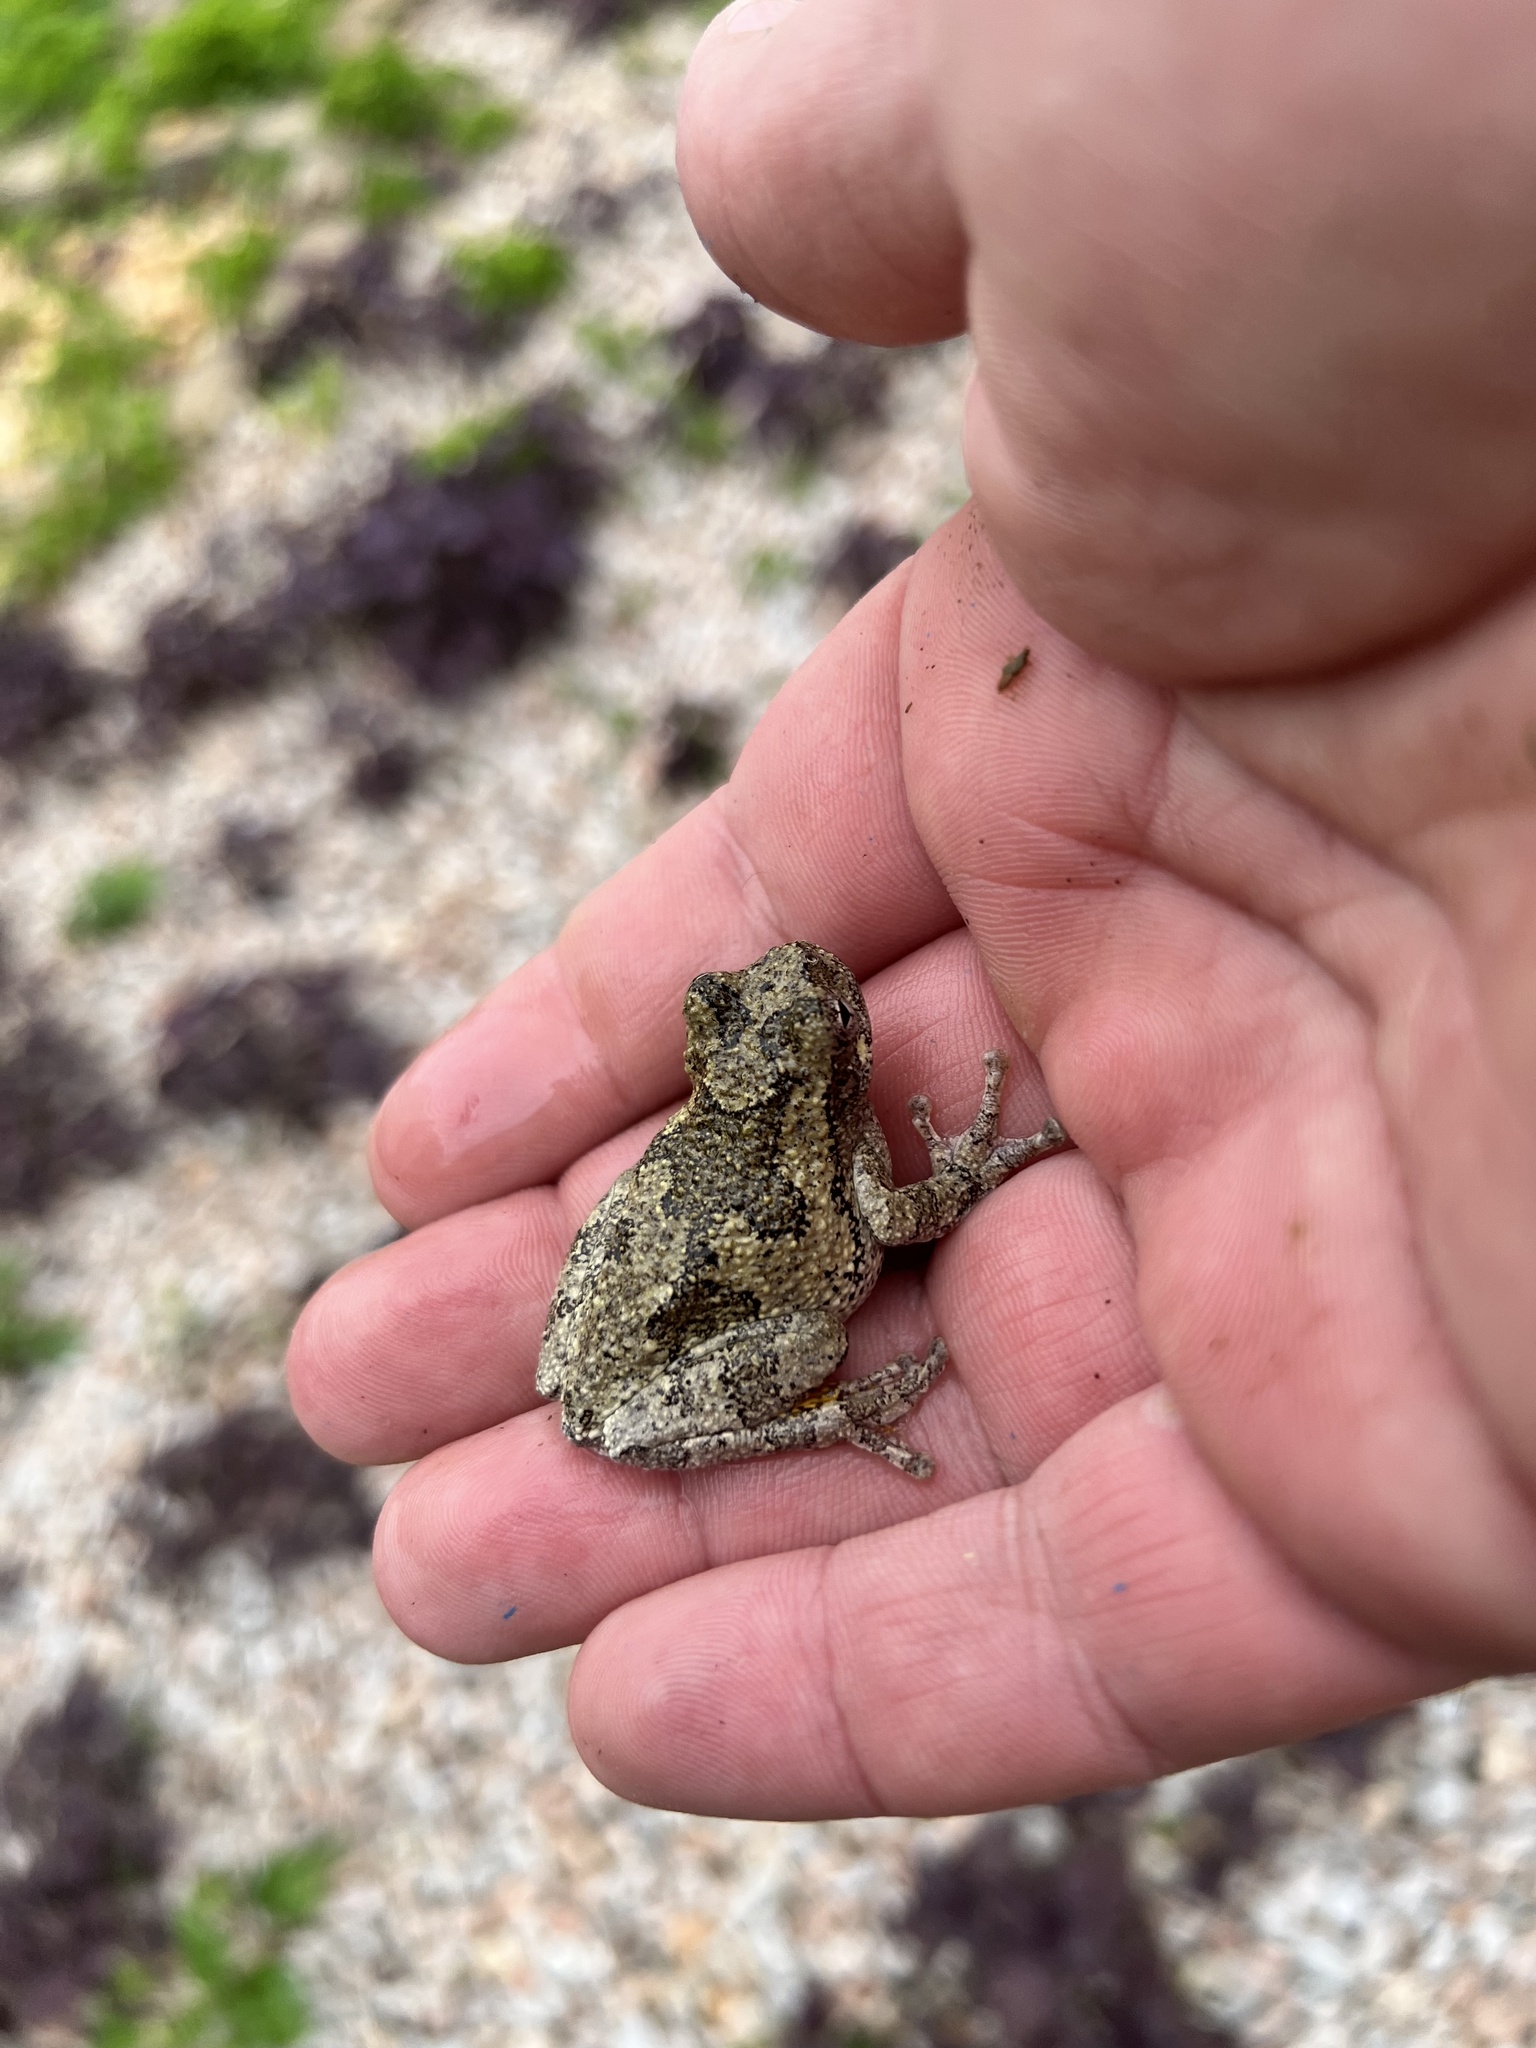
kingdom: Animalia
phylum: Chordata
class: Amphibia
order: Anura
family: Hylidae
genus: Dryophytes
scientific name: Dryophytes chrysoscelis
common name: Cope's gray treefrog
